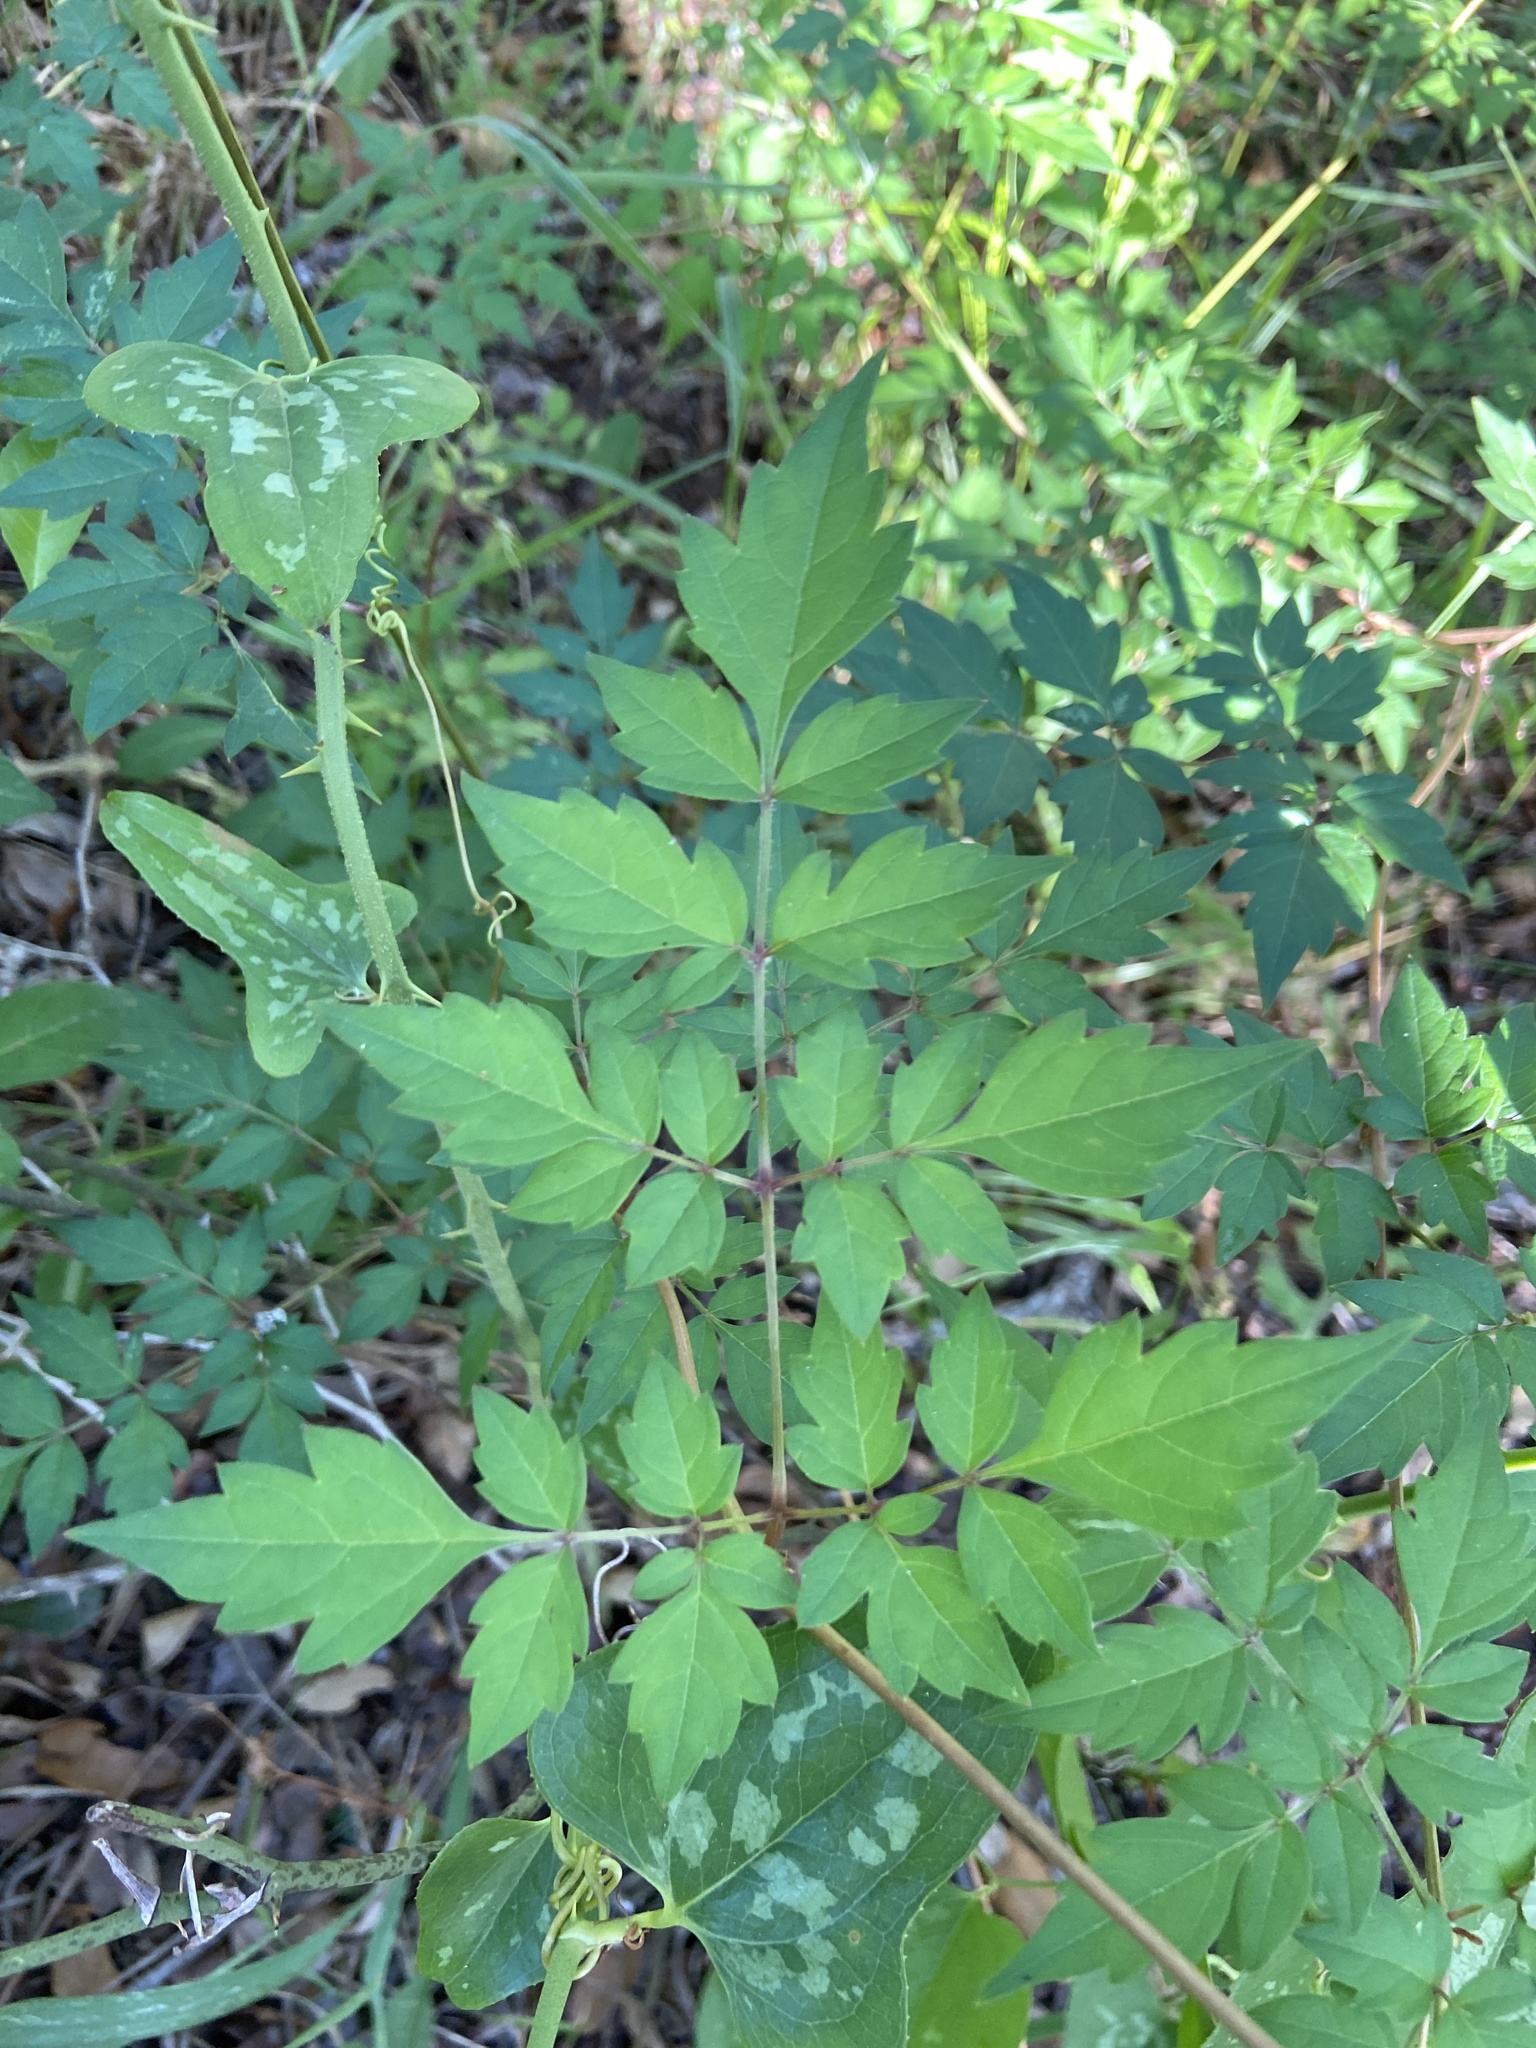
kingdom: Plantae
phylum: Tracheophyta
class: Magnoliopsida
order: Vitales
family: Vitaceae
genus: Nekemias
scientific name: Nekemias arborea
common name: Peppervine
